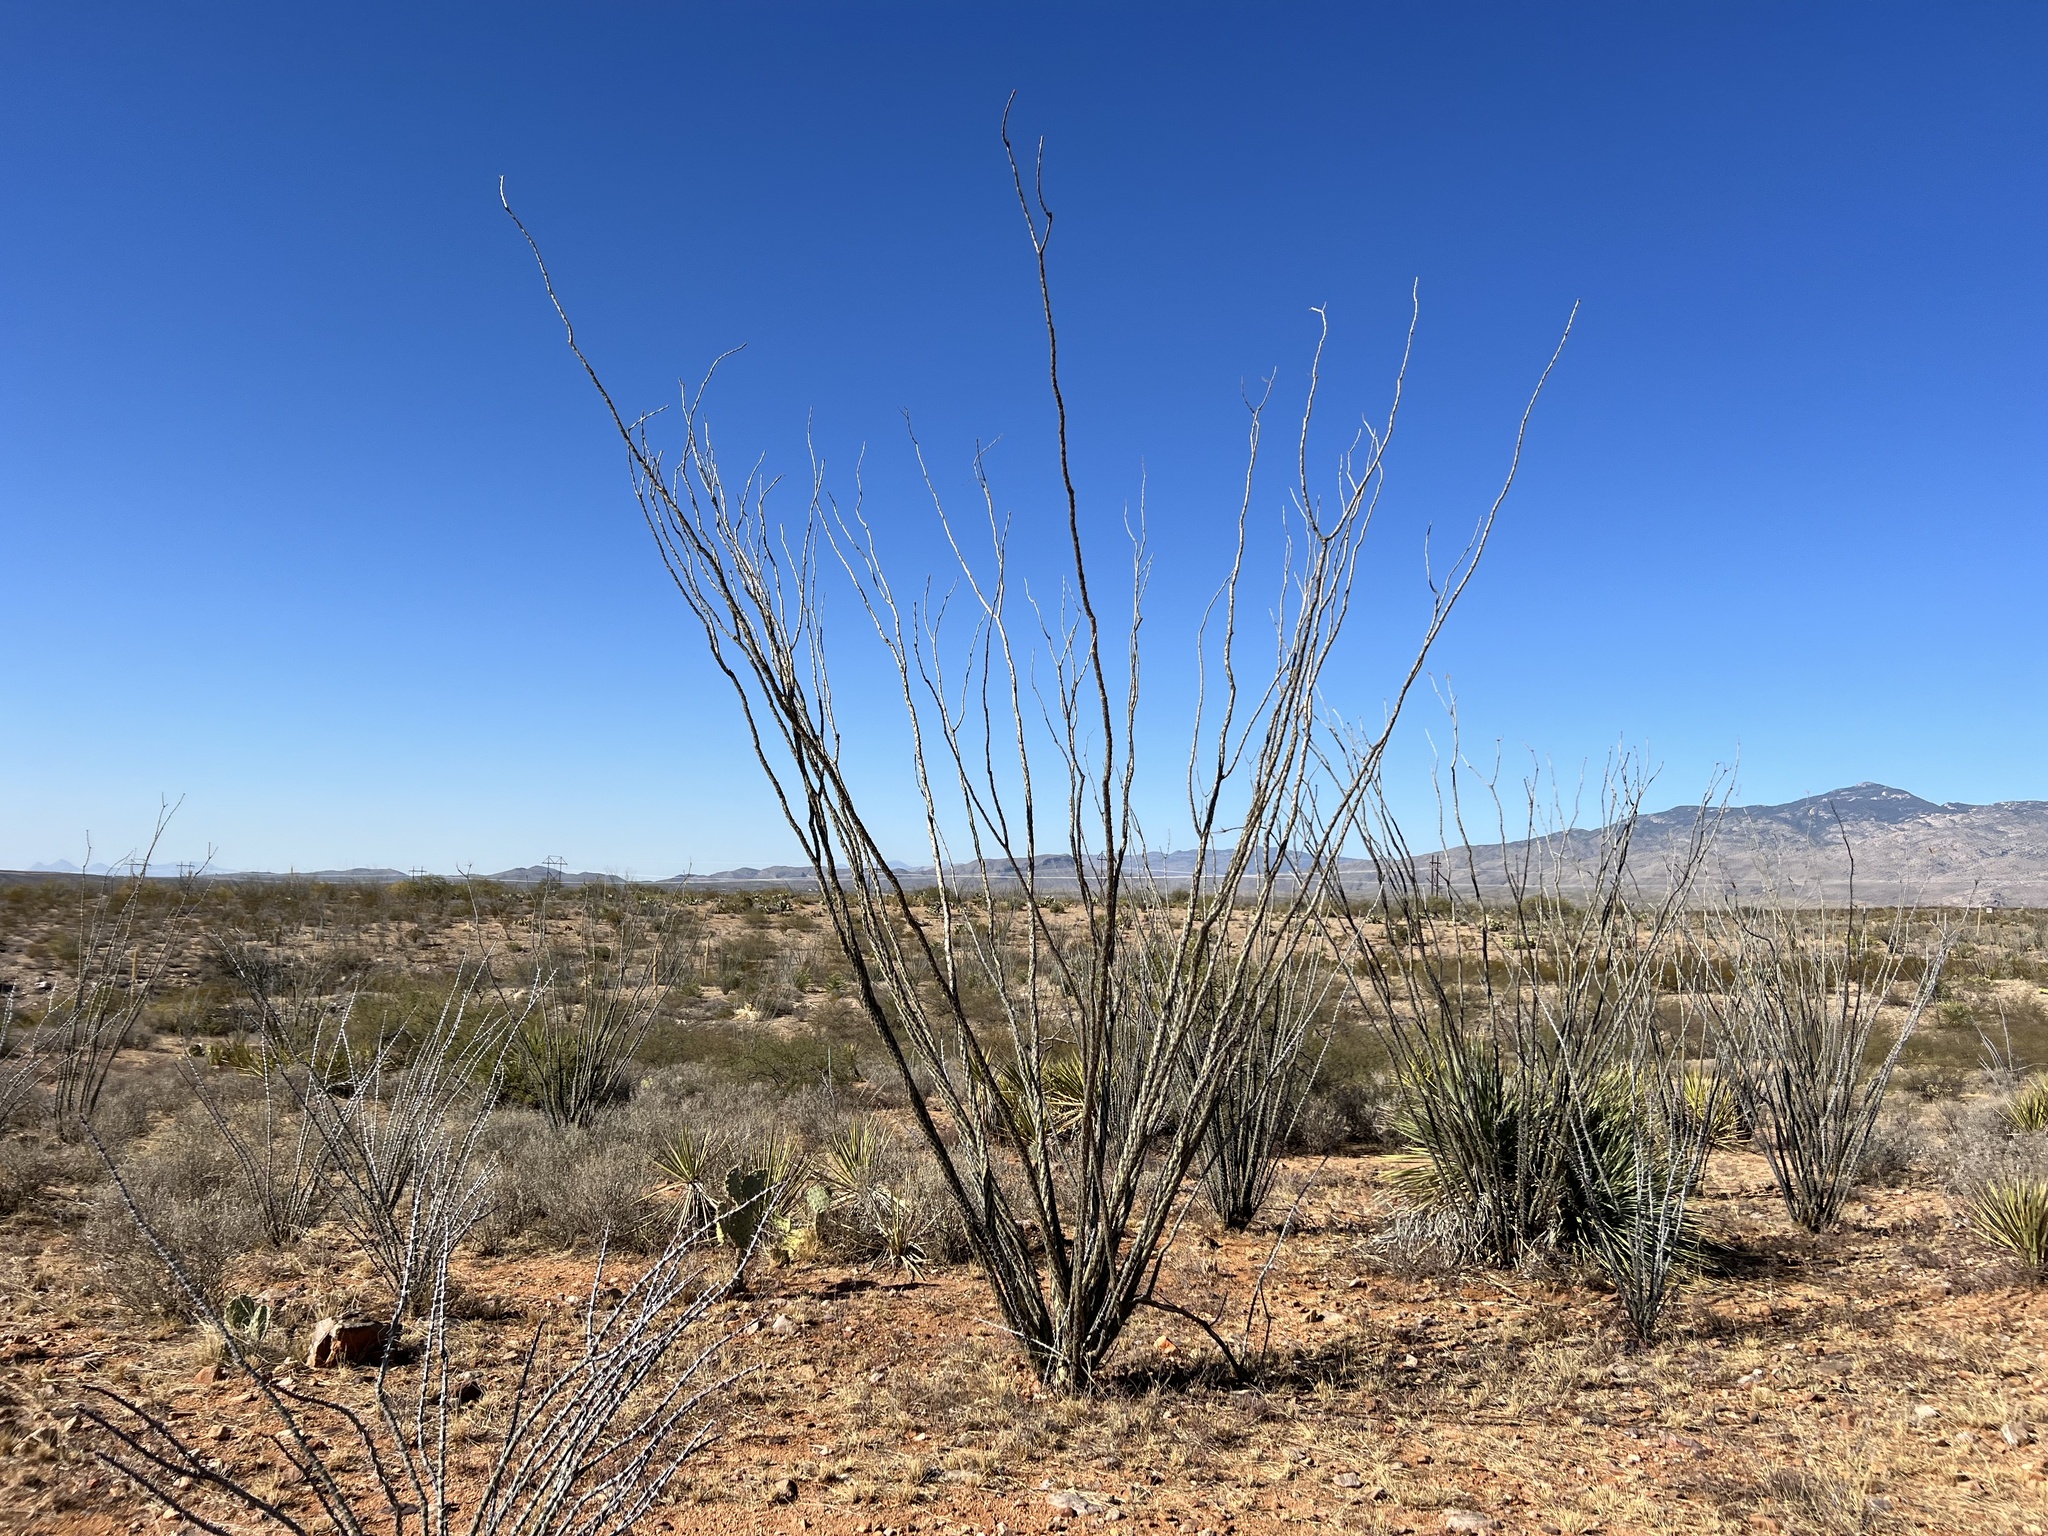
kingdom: Plantae
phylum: Tracheophyta
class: Magnoliopsida
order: Ericales
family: Fouquieriaceae
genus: Fouquieria
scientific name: Fouquieria splendens
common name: Vine-cactus
